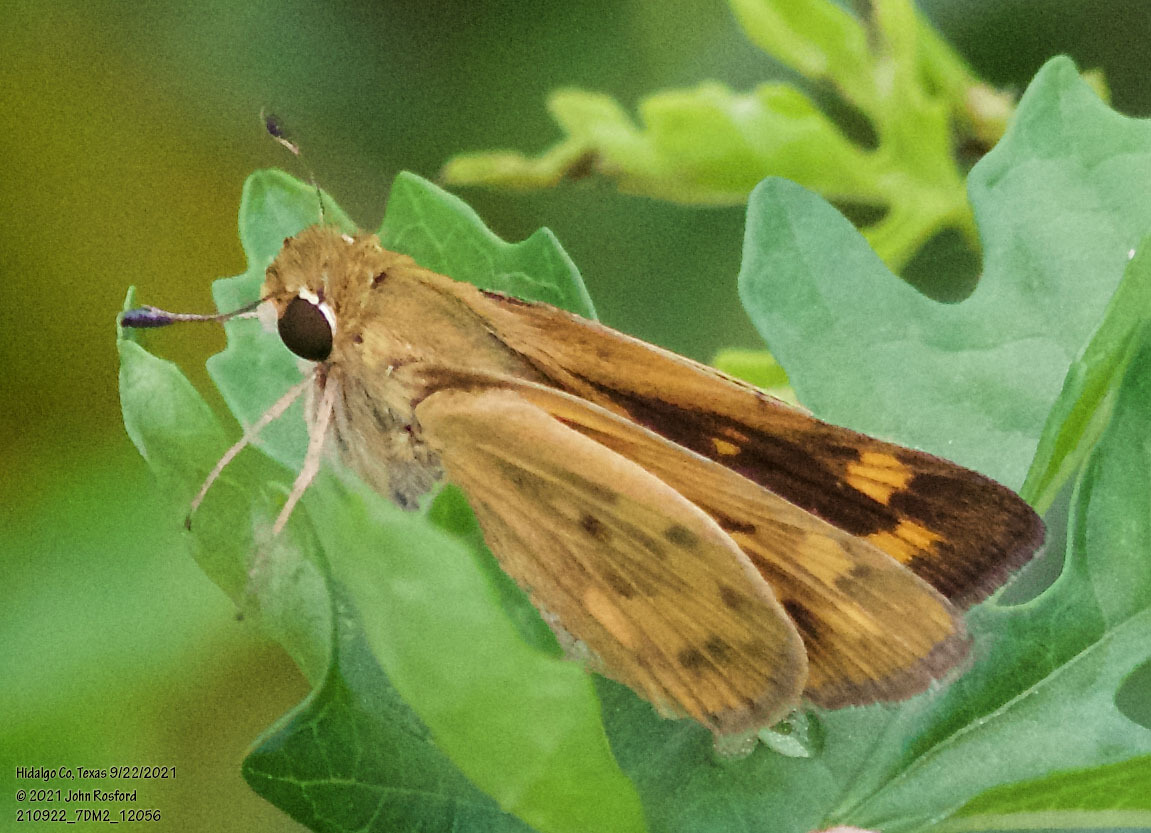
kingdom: Animalia
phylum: Arthropoda
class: Insecta
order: Lepidoptera
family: Hesperiidae
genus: Hylephila
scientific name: Hylephila phyleus
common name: Fiery skipper
